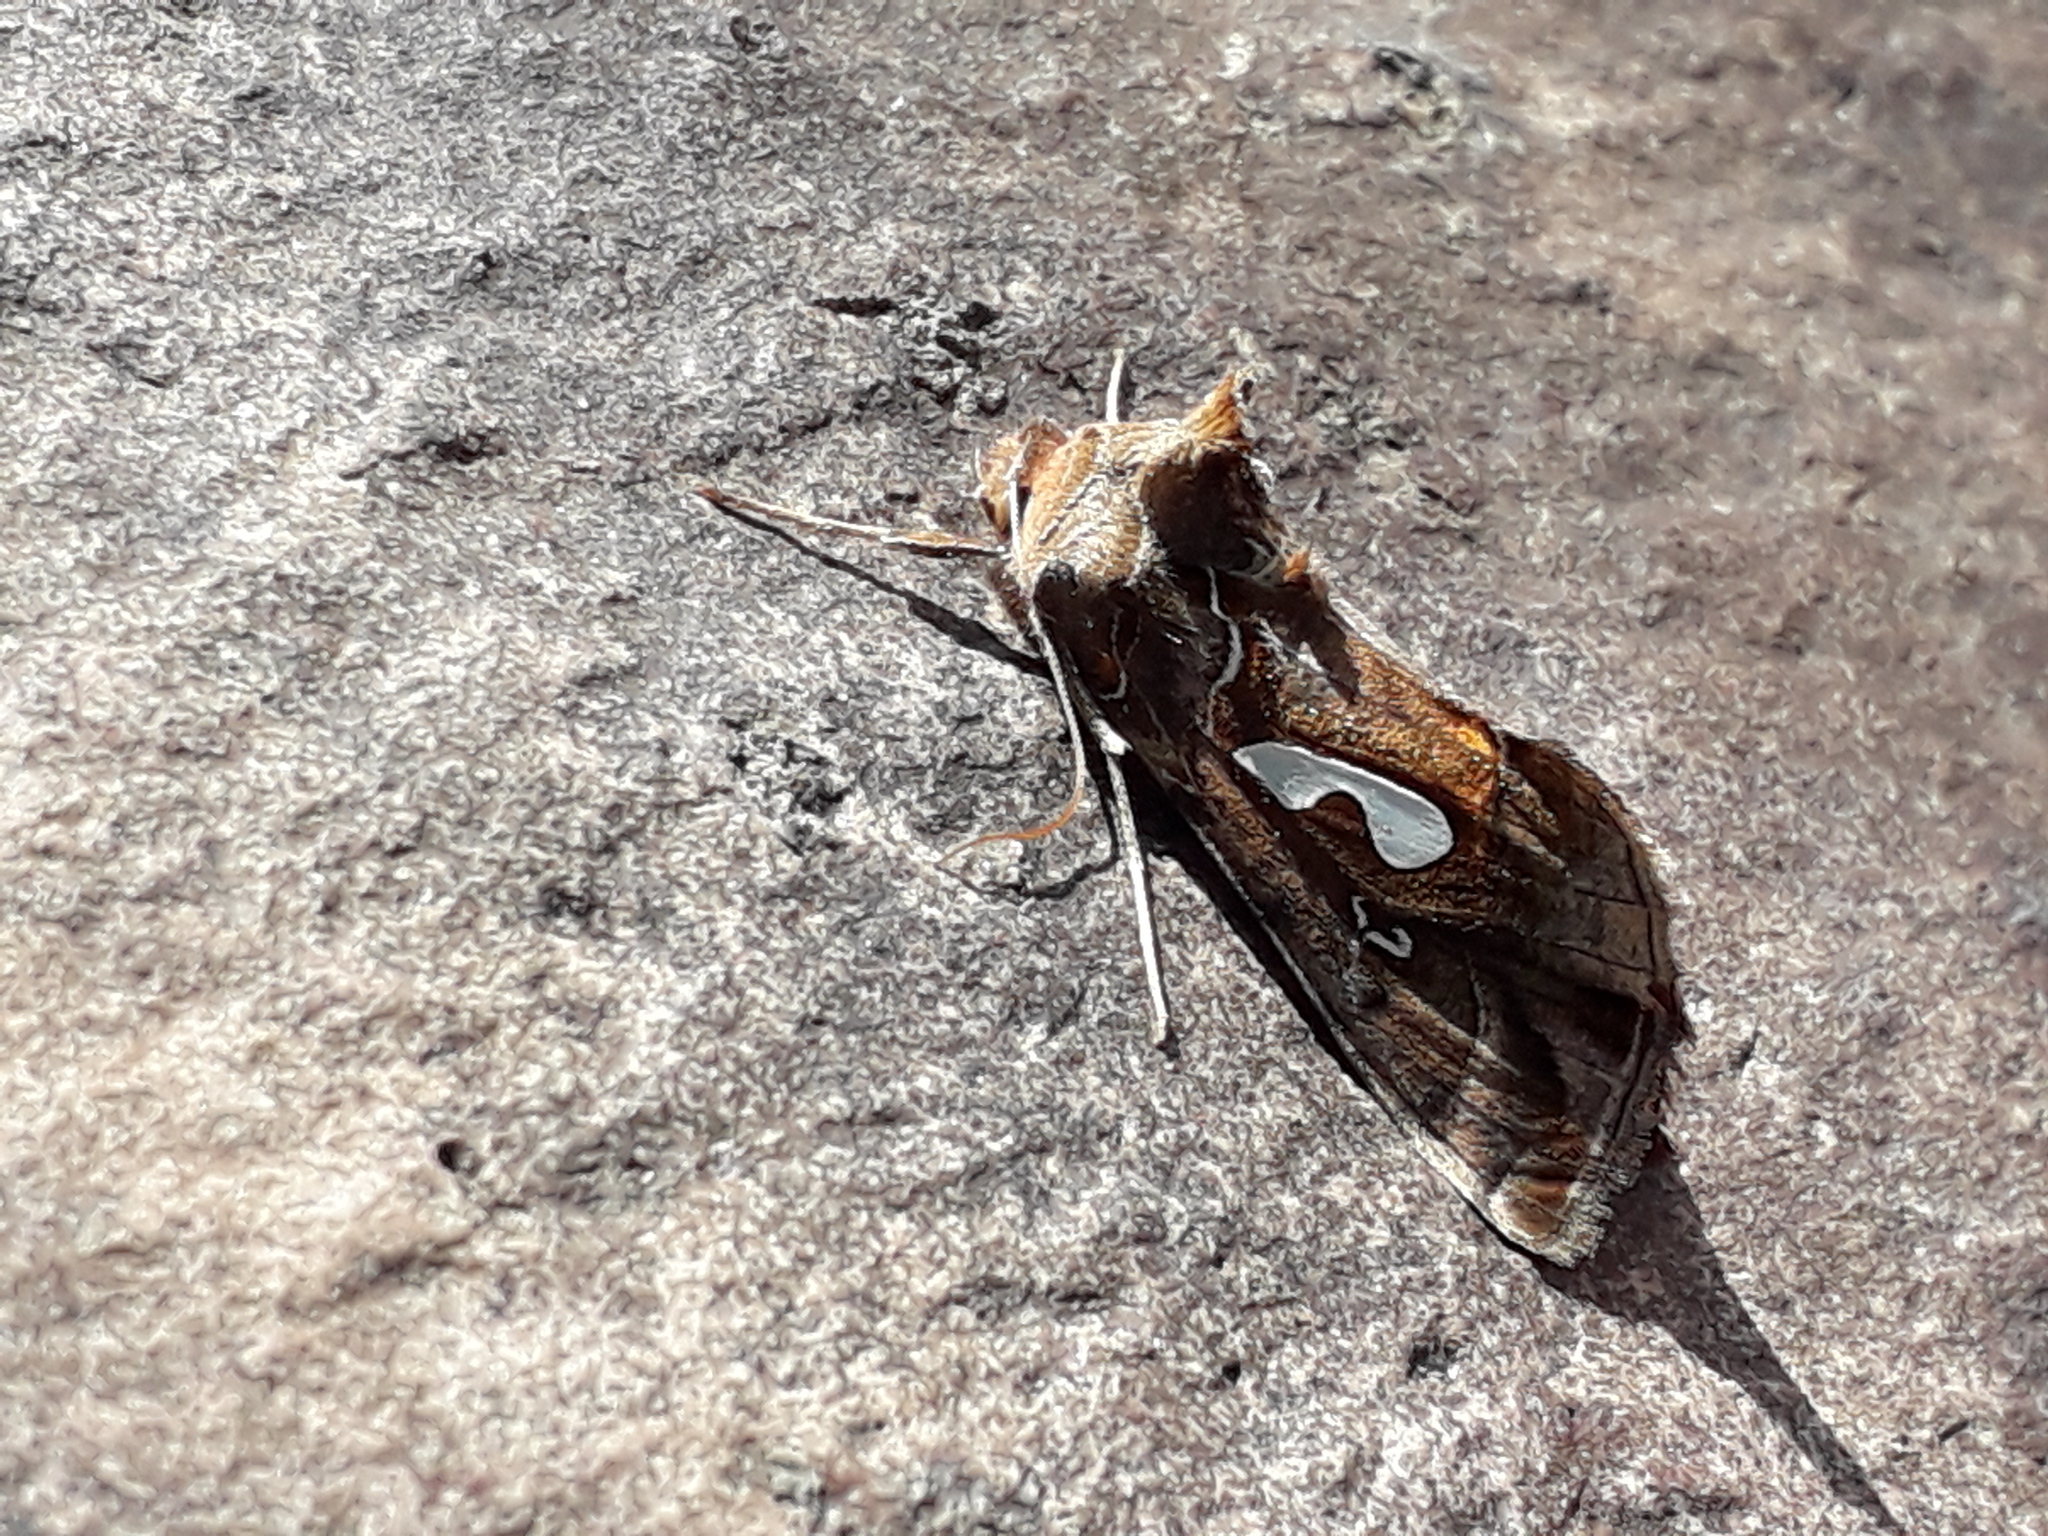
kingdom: Animalia
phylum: Arthropoda
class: Insecta
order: Lepidoptera
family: Noctuidae
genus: Megalographa
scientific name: Megalographa biloba
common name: Cutworm
